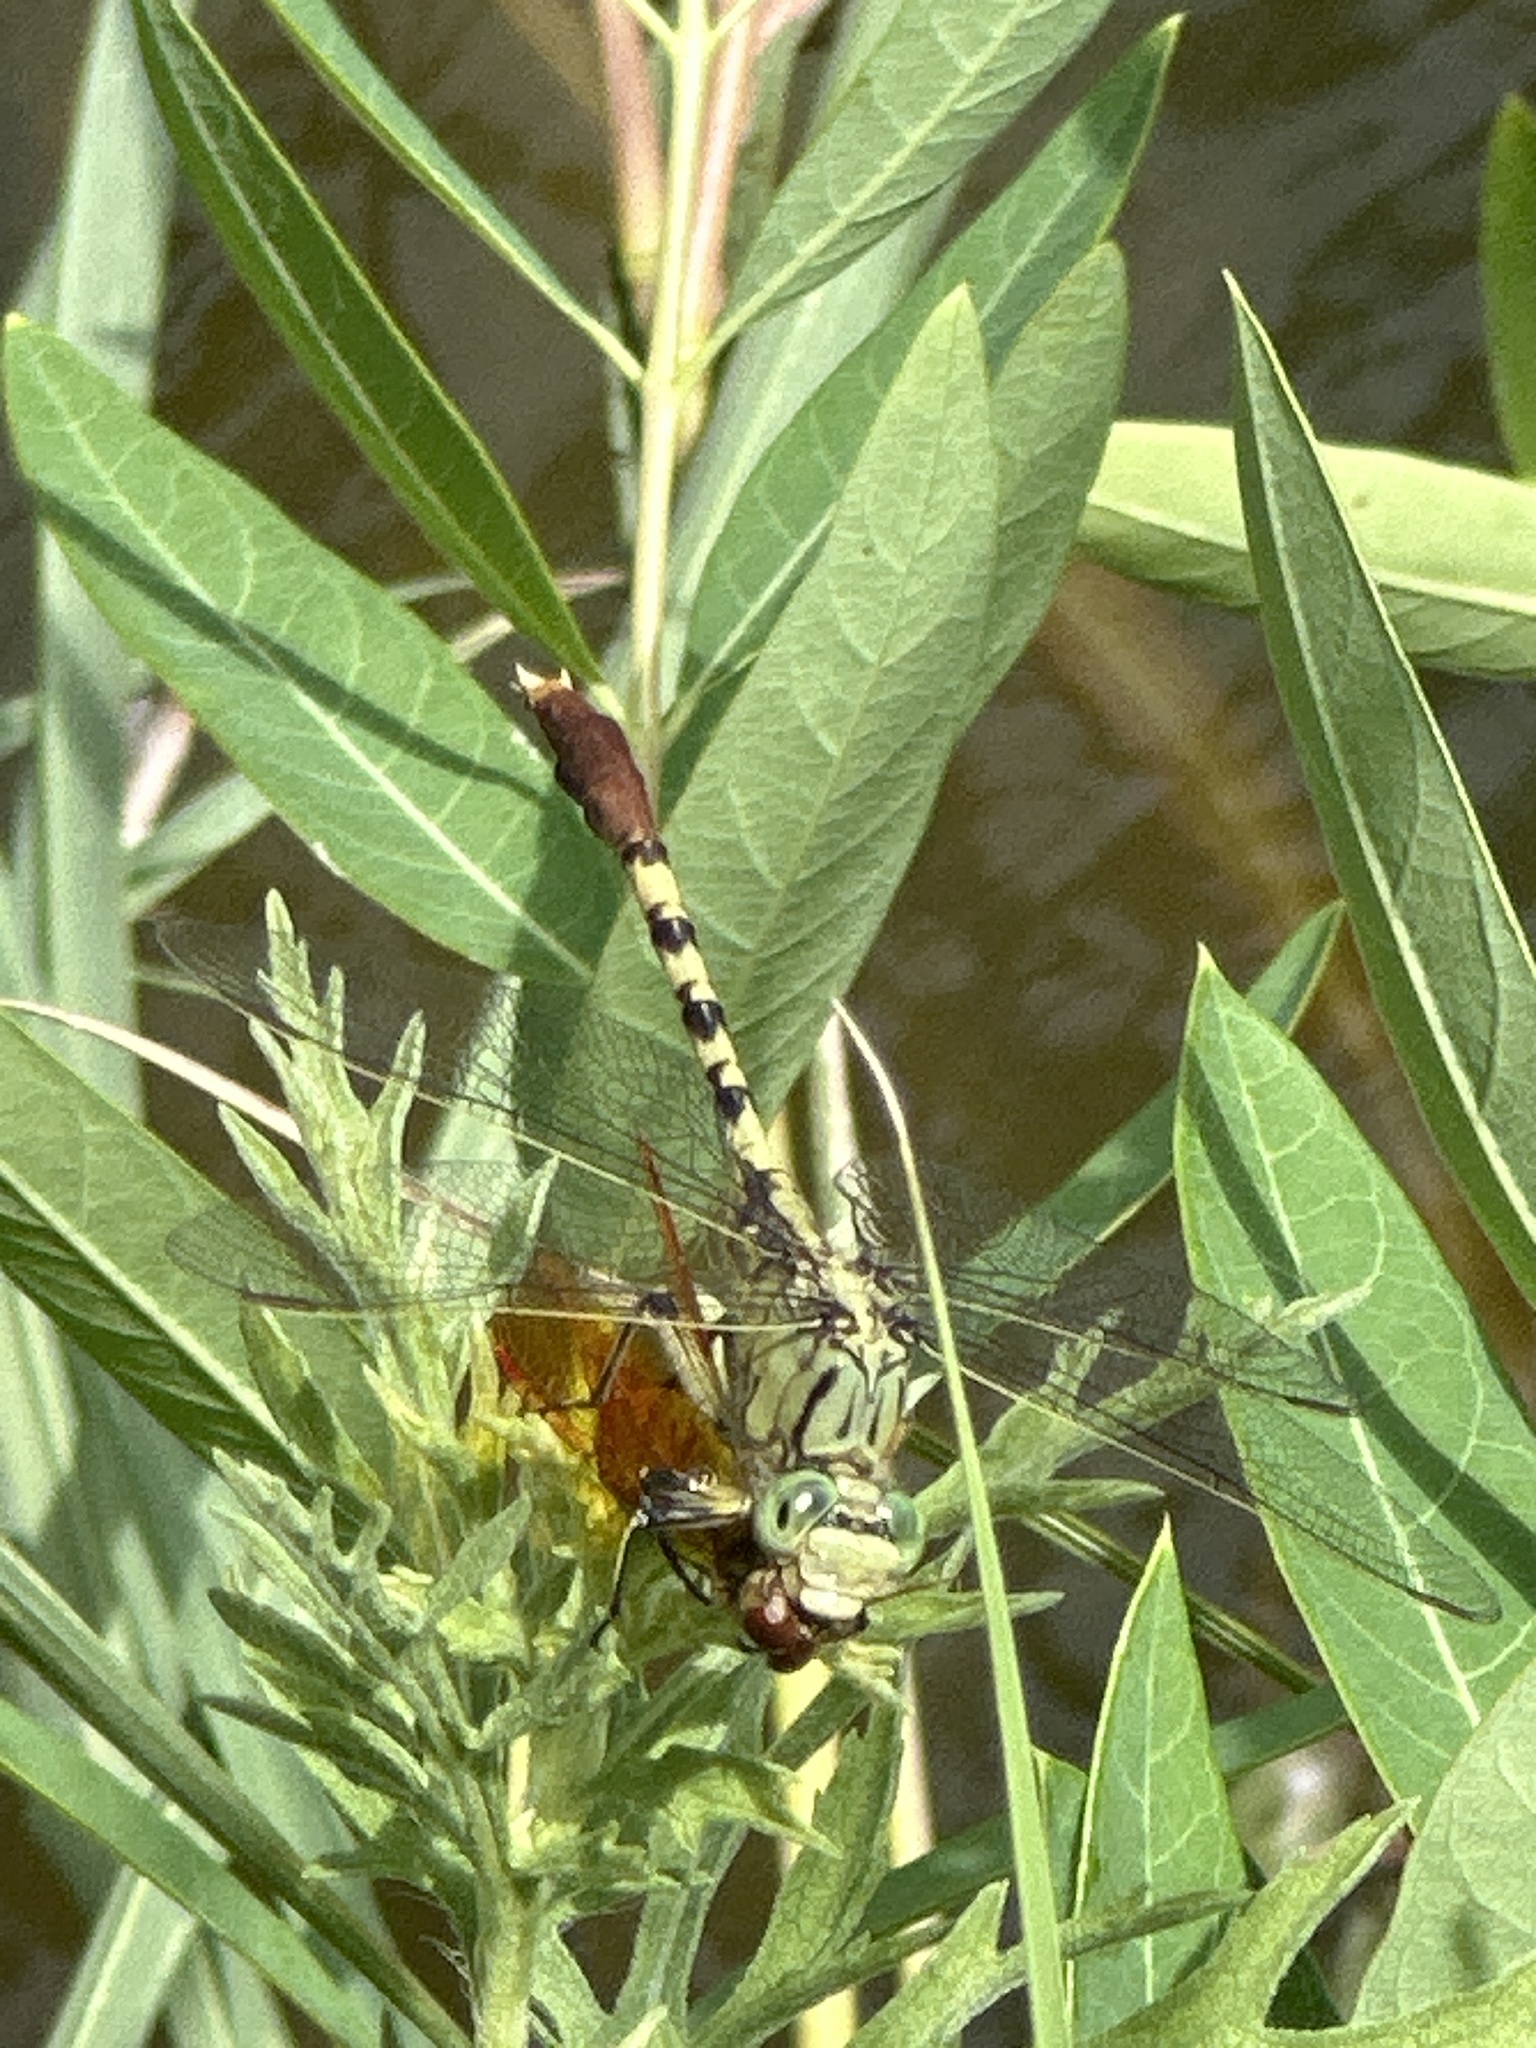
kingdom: Animalia
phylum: Arthropoda
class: Insecta
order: Odonata
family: Gomphidae
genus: Arigomphus
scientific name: Arigomphus submedianus
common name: Jade clubtail
